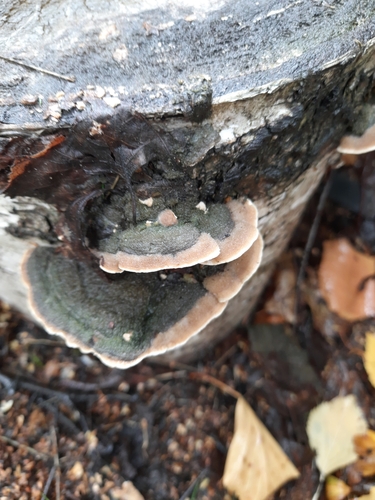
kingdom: Fungi
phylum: Basidiomycota
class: Agaricomycetes
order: Polyporales
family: Cerrenaceae
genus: Cerrena
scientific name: Cerrena unicolor
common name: Mossy maze polypore
